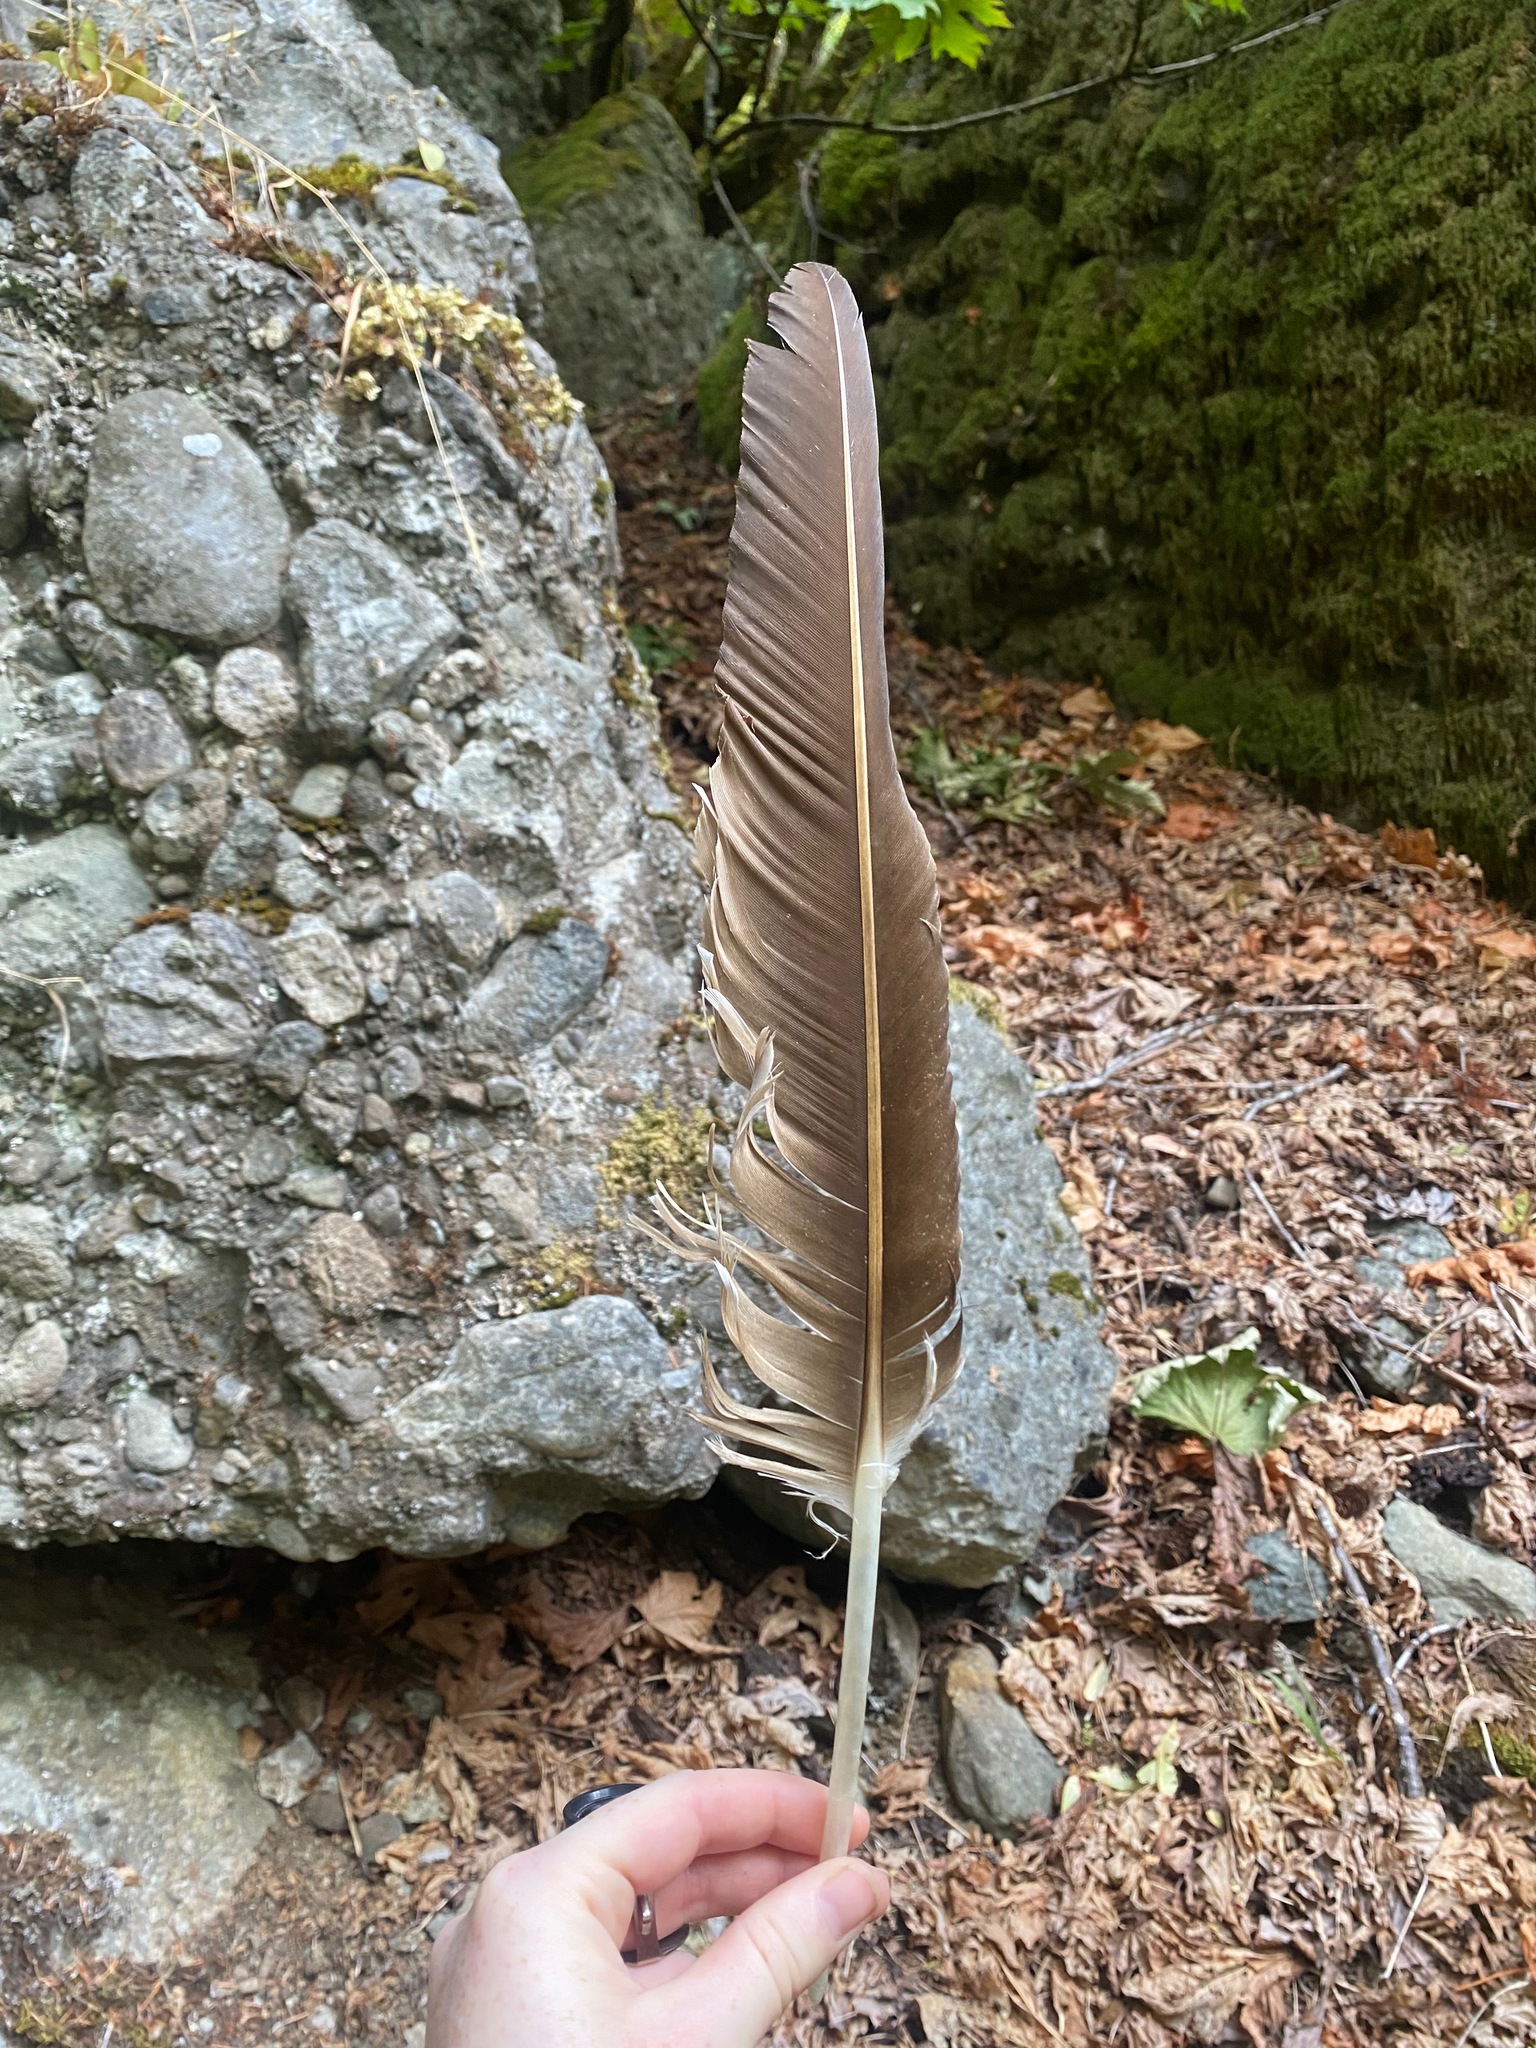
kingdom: Animalia
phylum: Chordata
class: Aves
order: Accipitriformes
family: Cathartidae
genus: Cathartes
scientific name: Cathartes aura
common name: Turkey vulture
